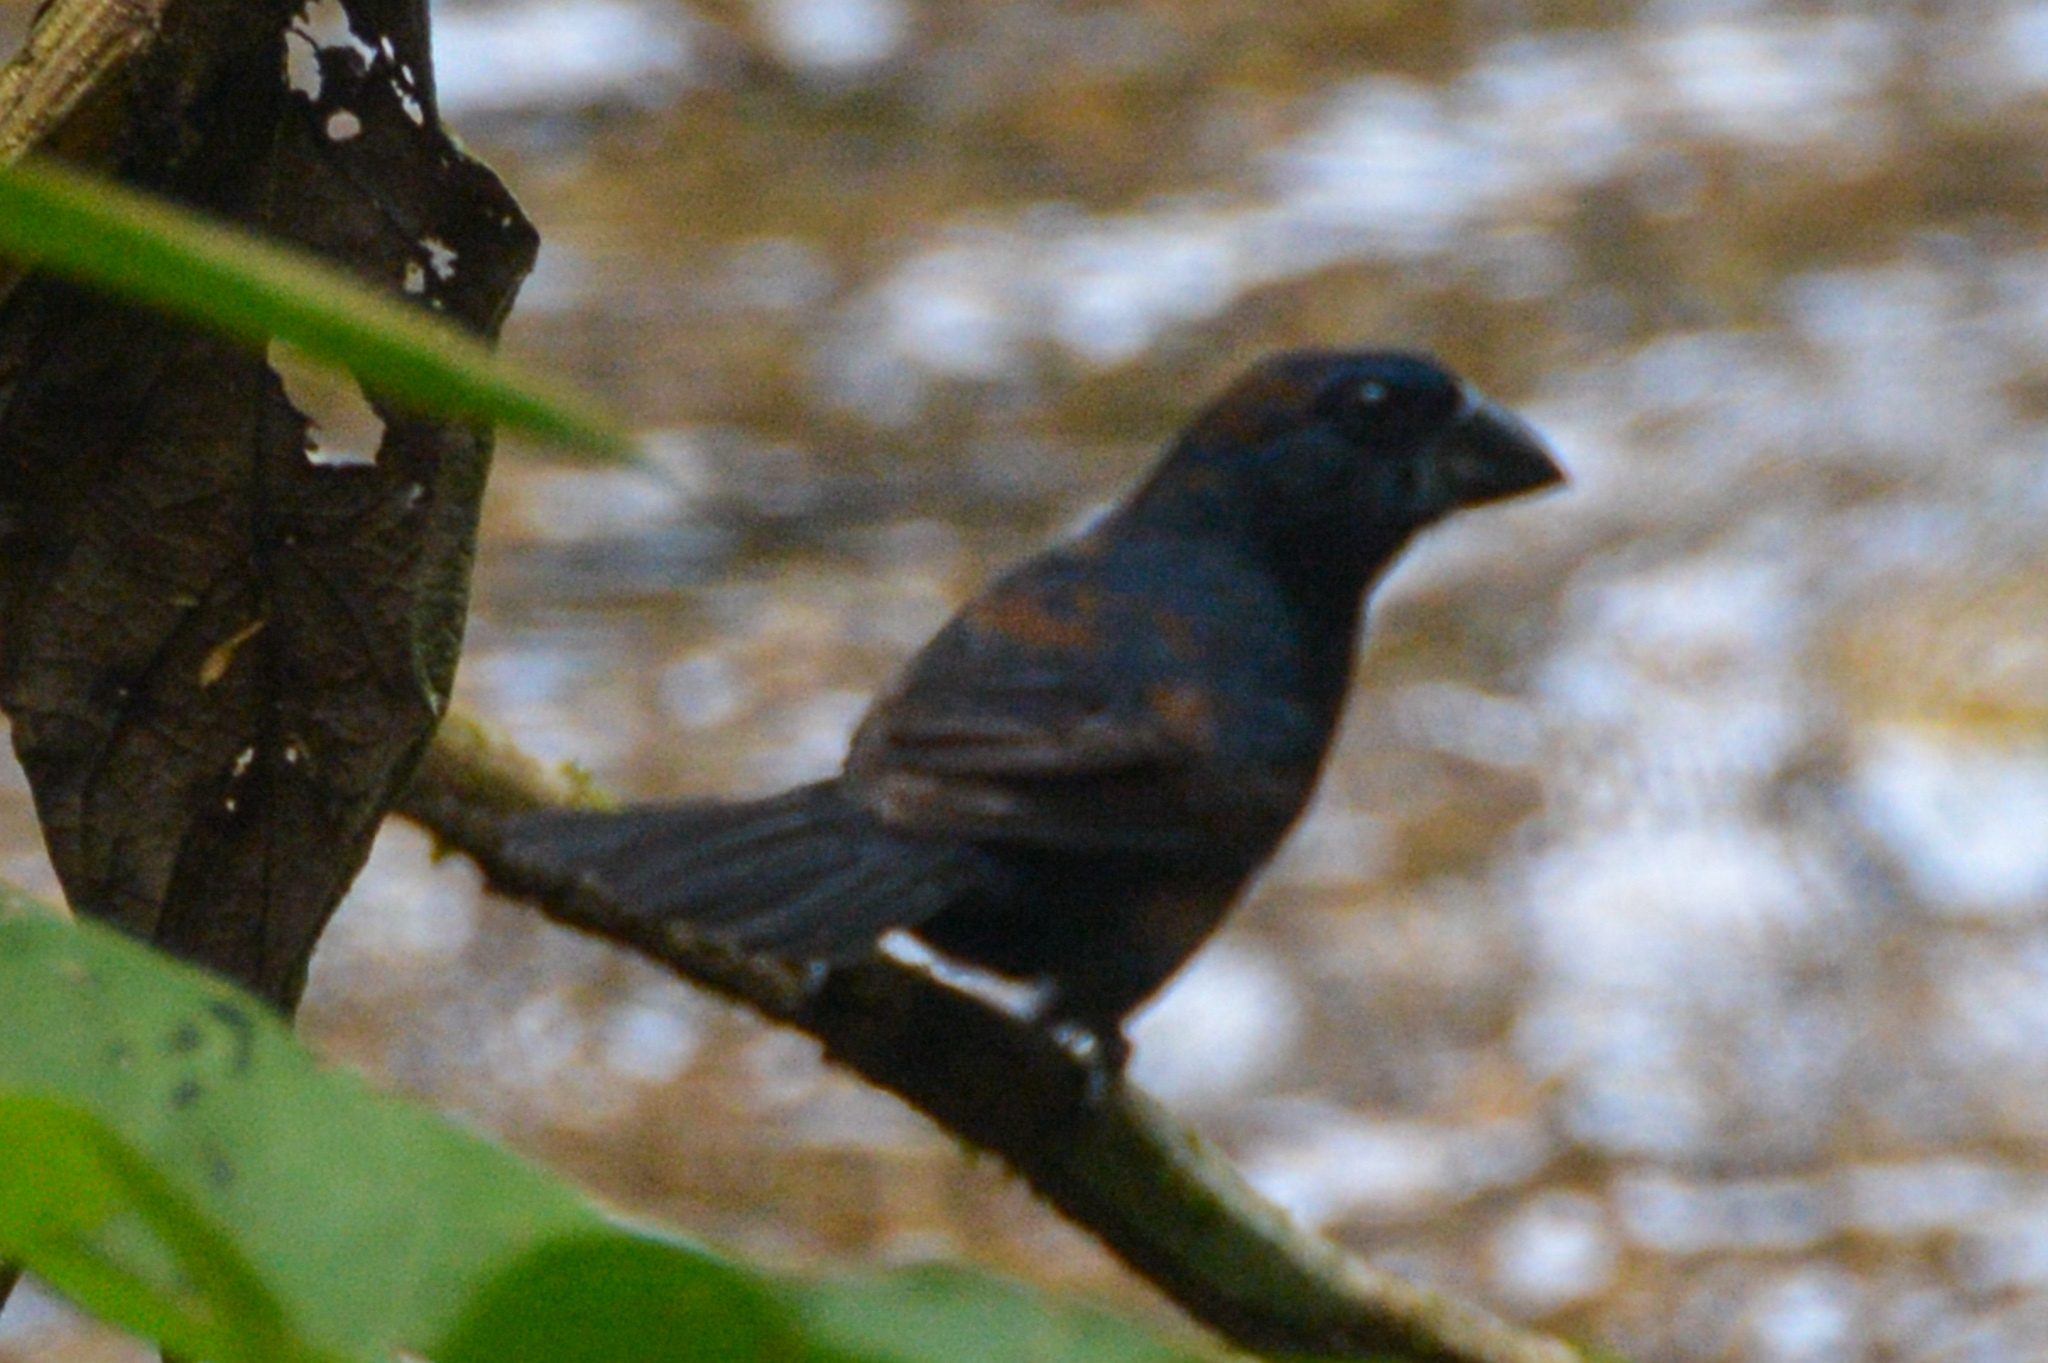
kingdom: Animalia
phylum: Chordata
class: Aves
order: Passeriformes
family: Cardinalidae
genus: Cyanocompsa
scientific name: Cyanocompsa cyanoides
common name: Blue-black grosbeak
